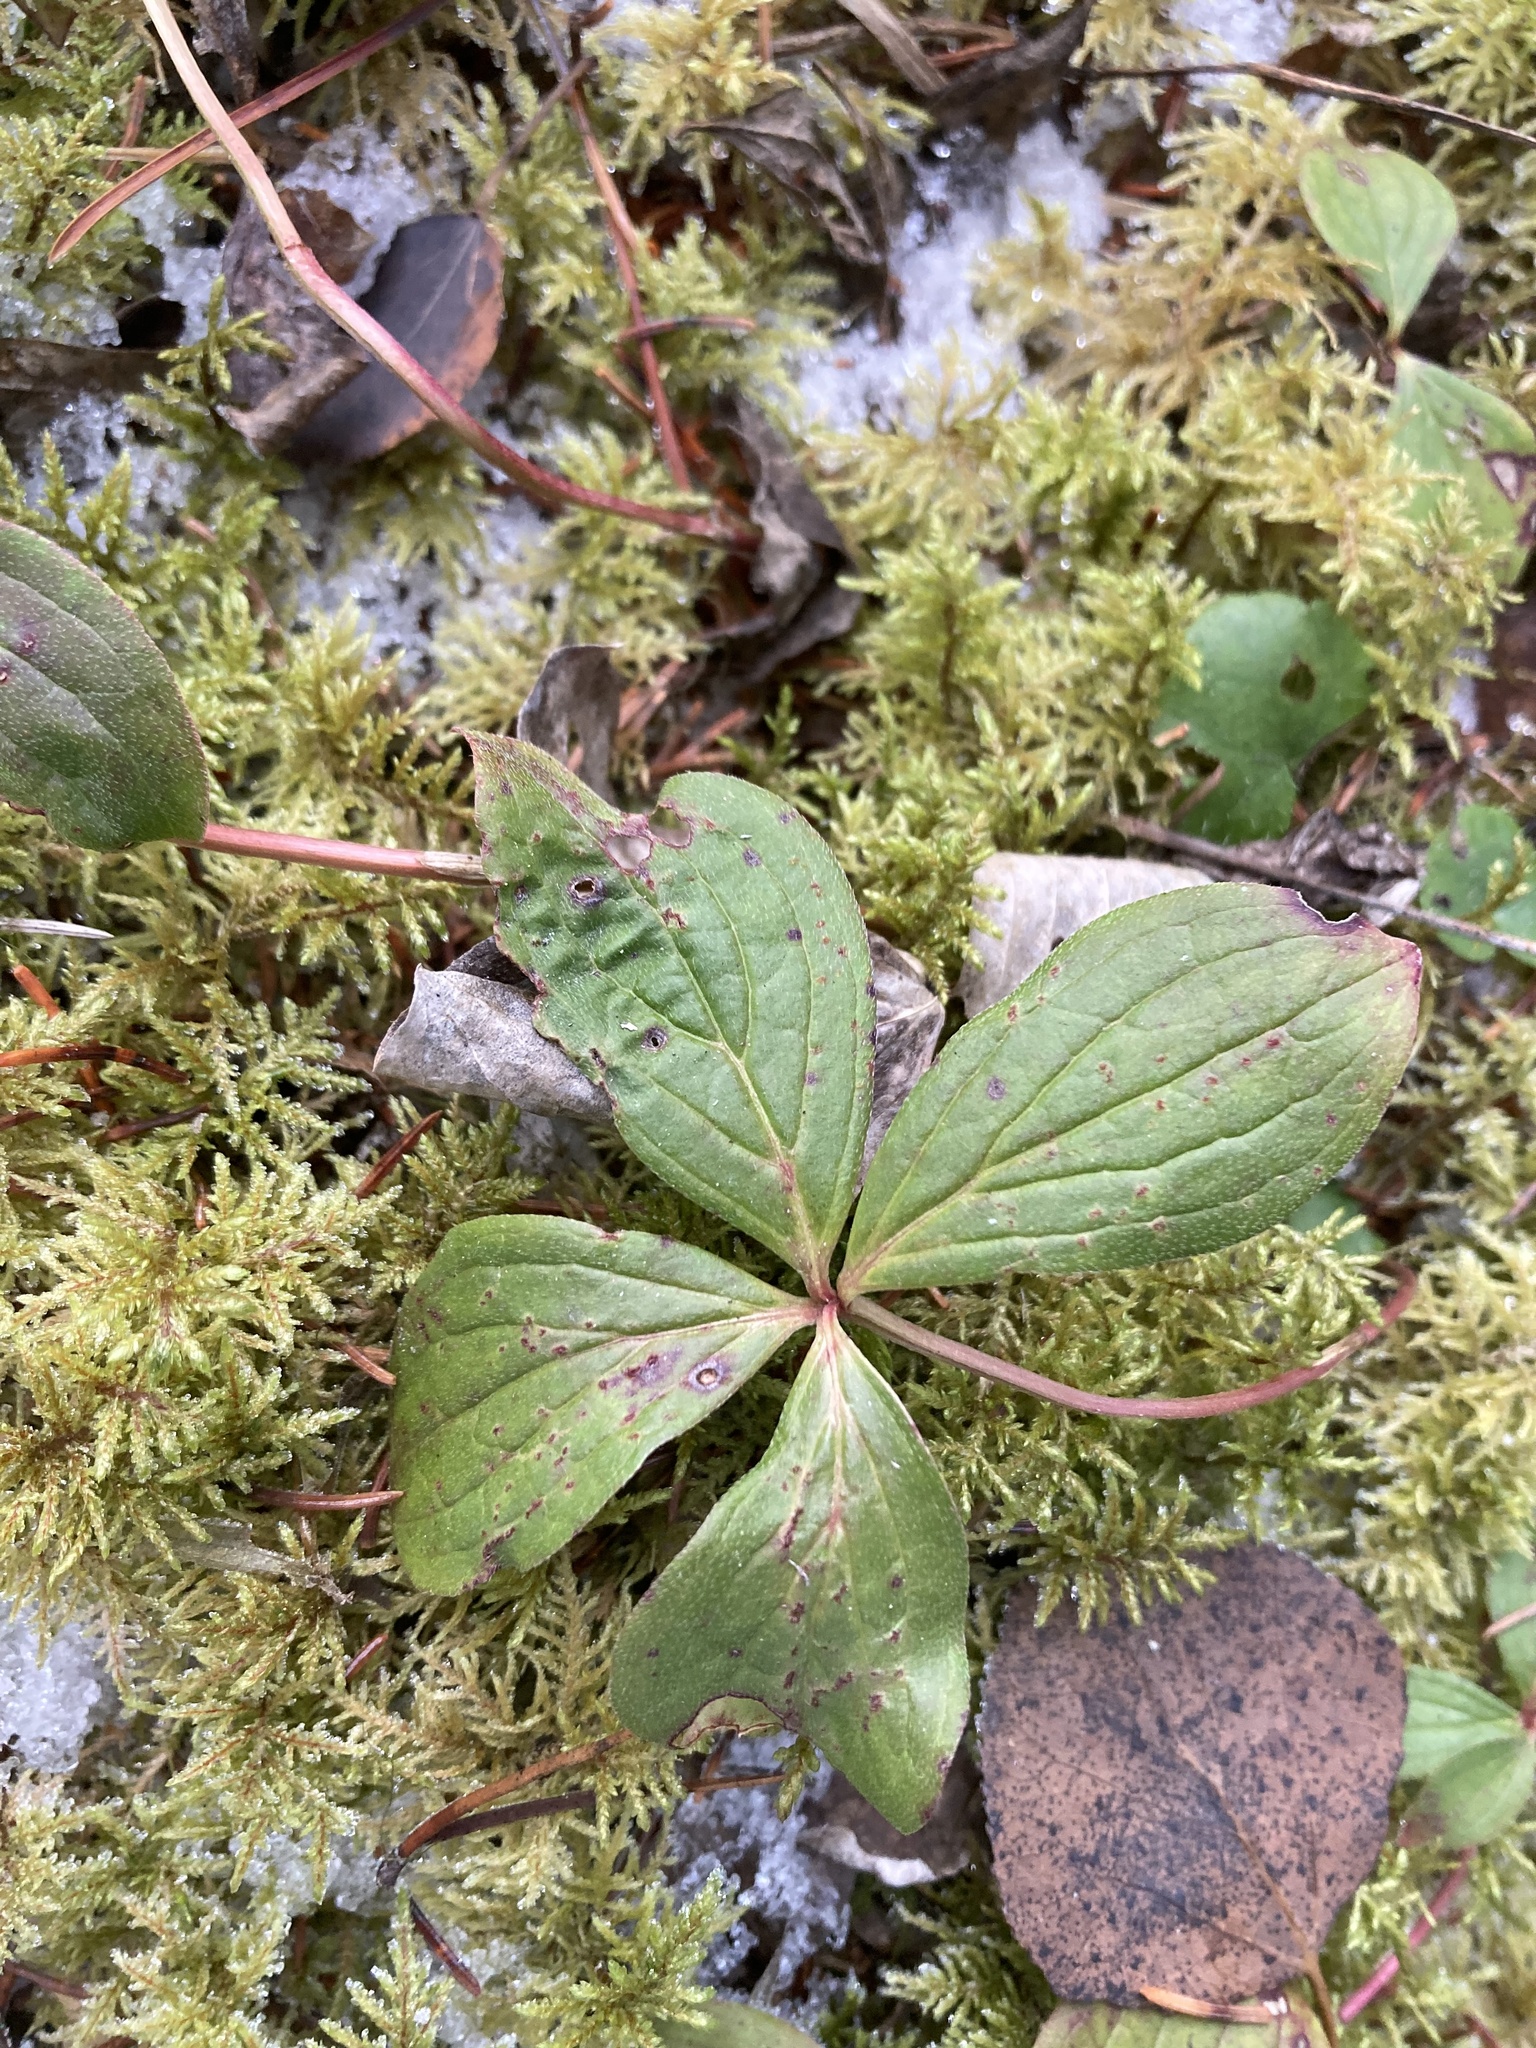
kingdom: Plantae
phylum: Tracheophyta
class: Magnoliopsida
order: Cornales
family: Cornaceae
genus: Cornus
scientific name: Cornus canadensis
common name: Creeping dogwood
